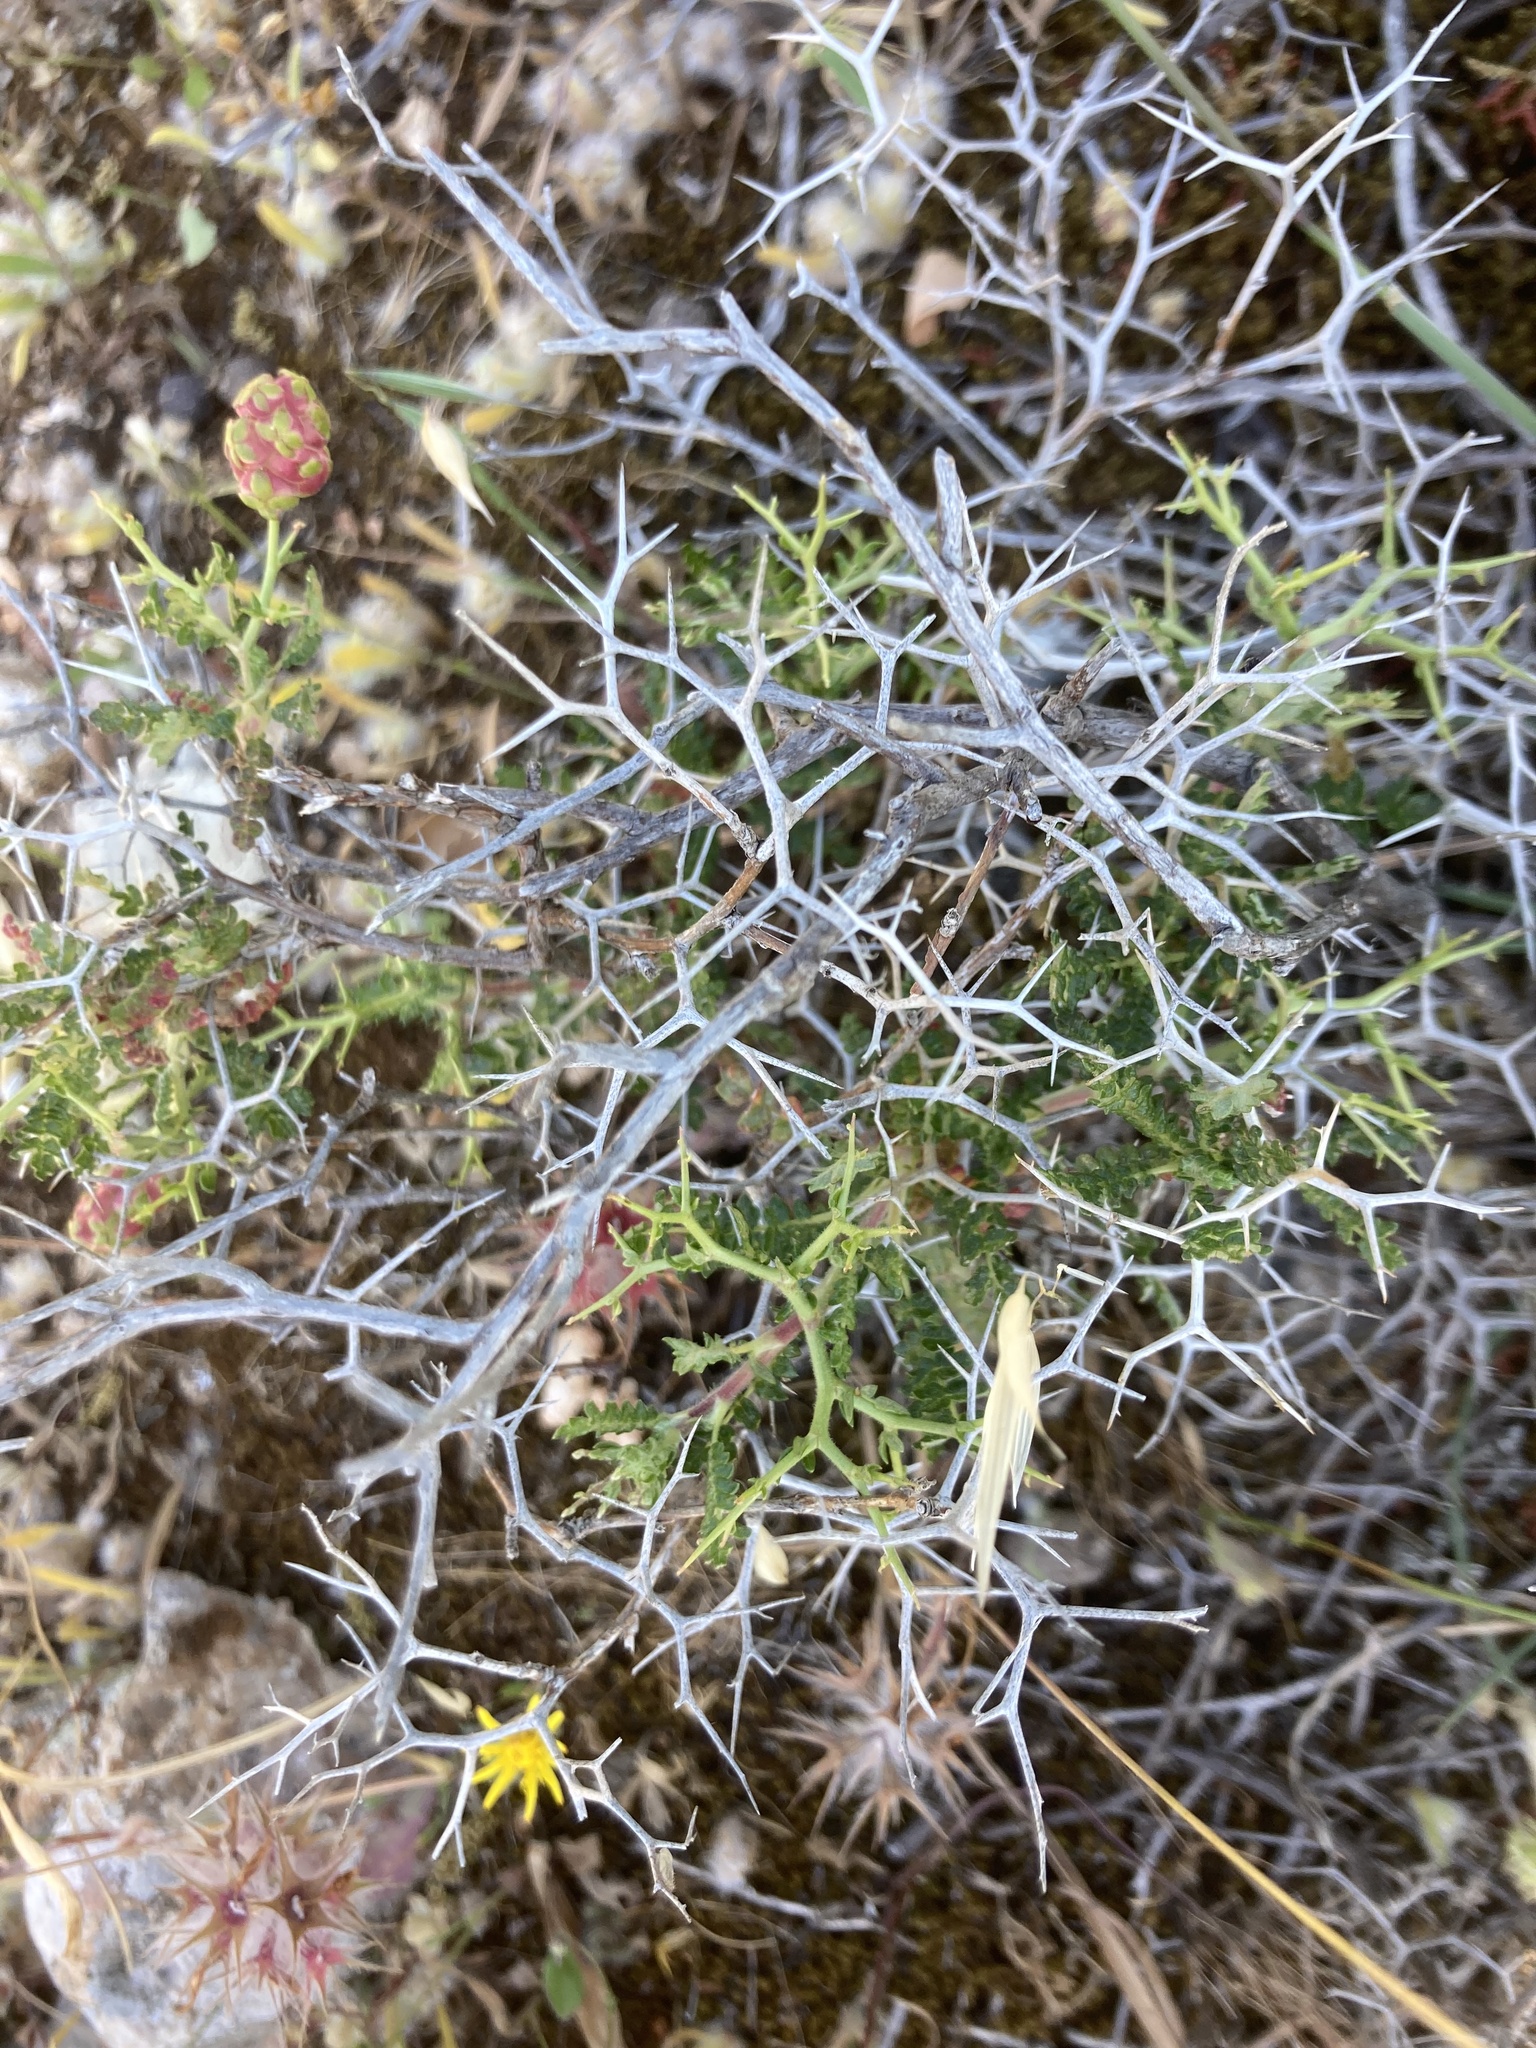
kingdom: Plantae
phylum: Tracheophyta
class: Magnoliopsida
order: Rosales
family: Rosaceae
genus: Sarcopoterium
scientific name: Sarcopoterium spinosum
